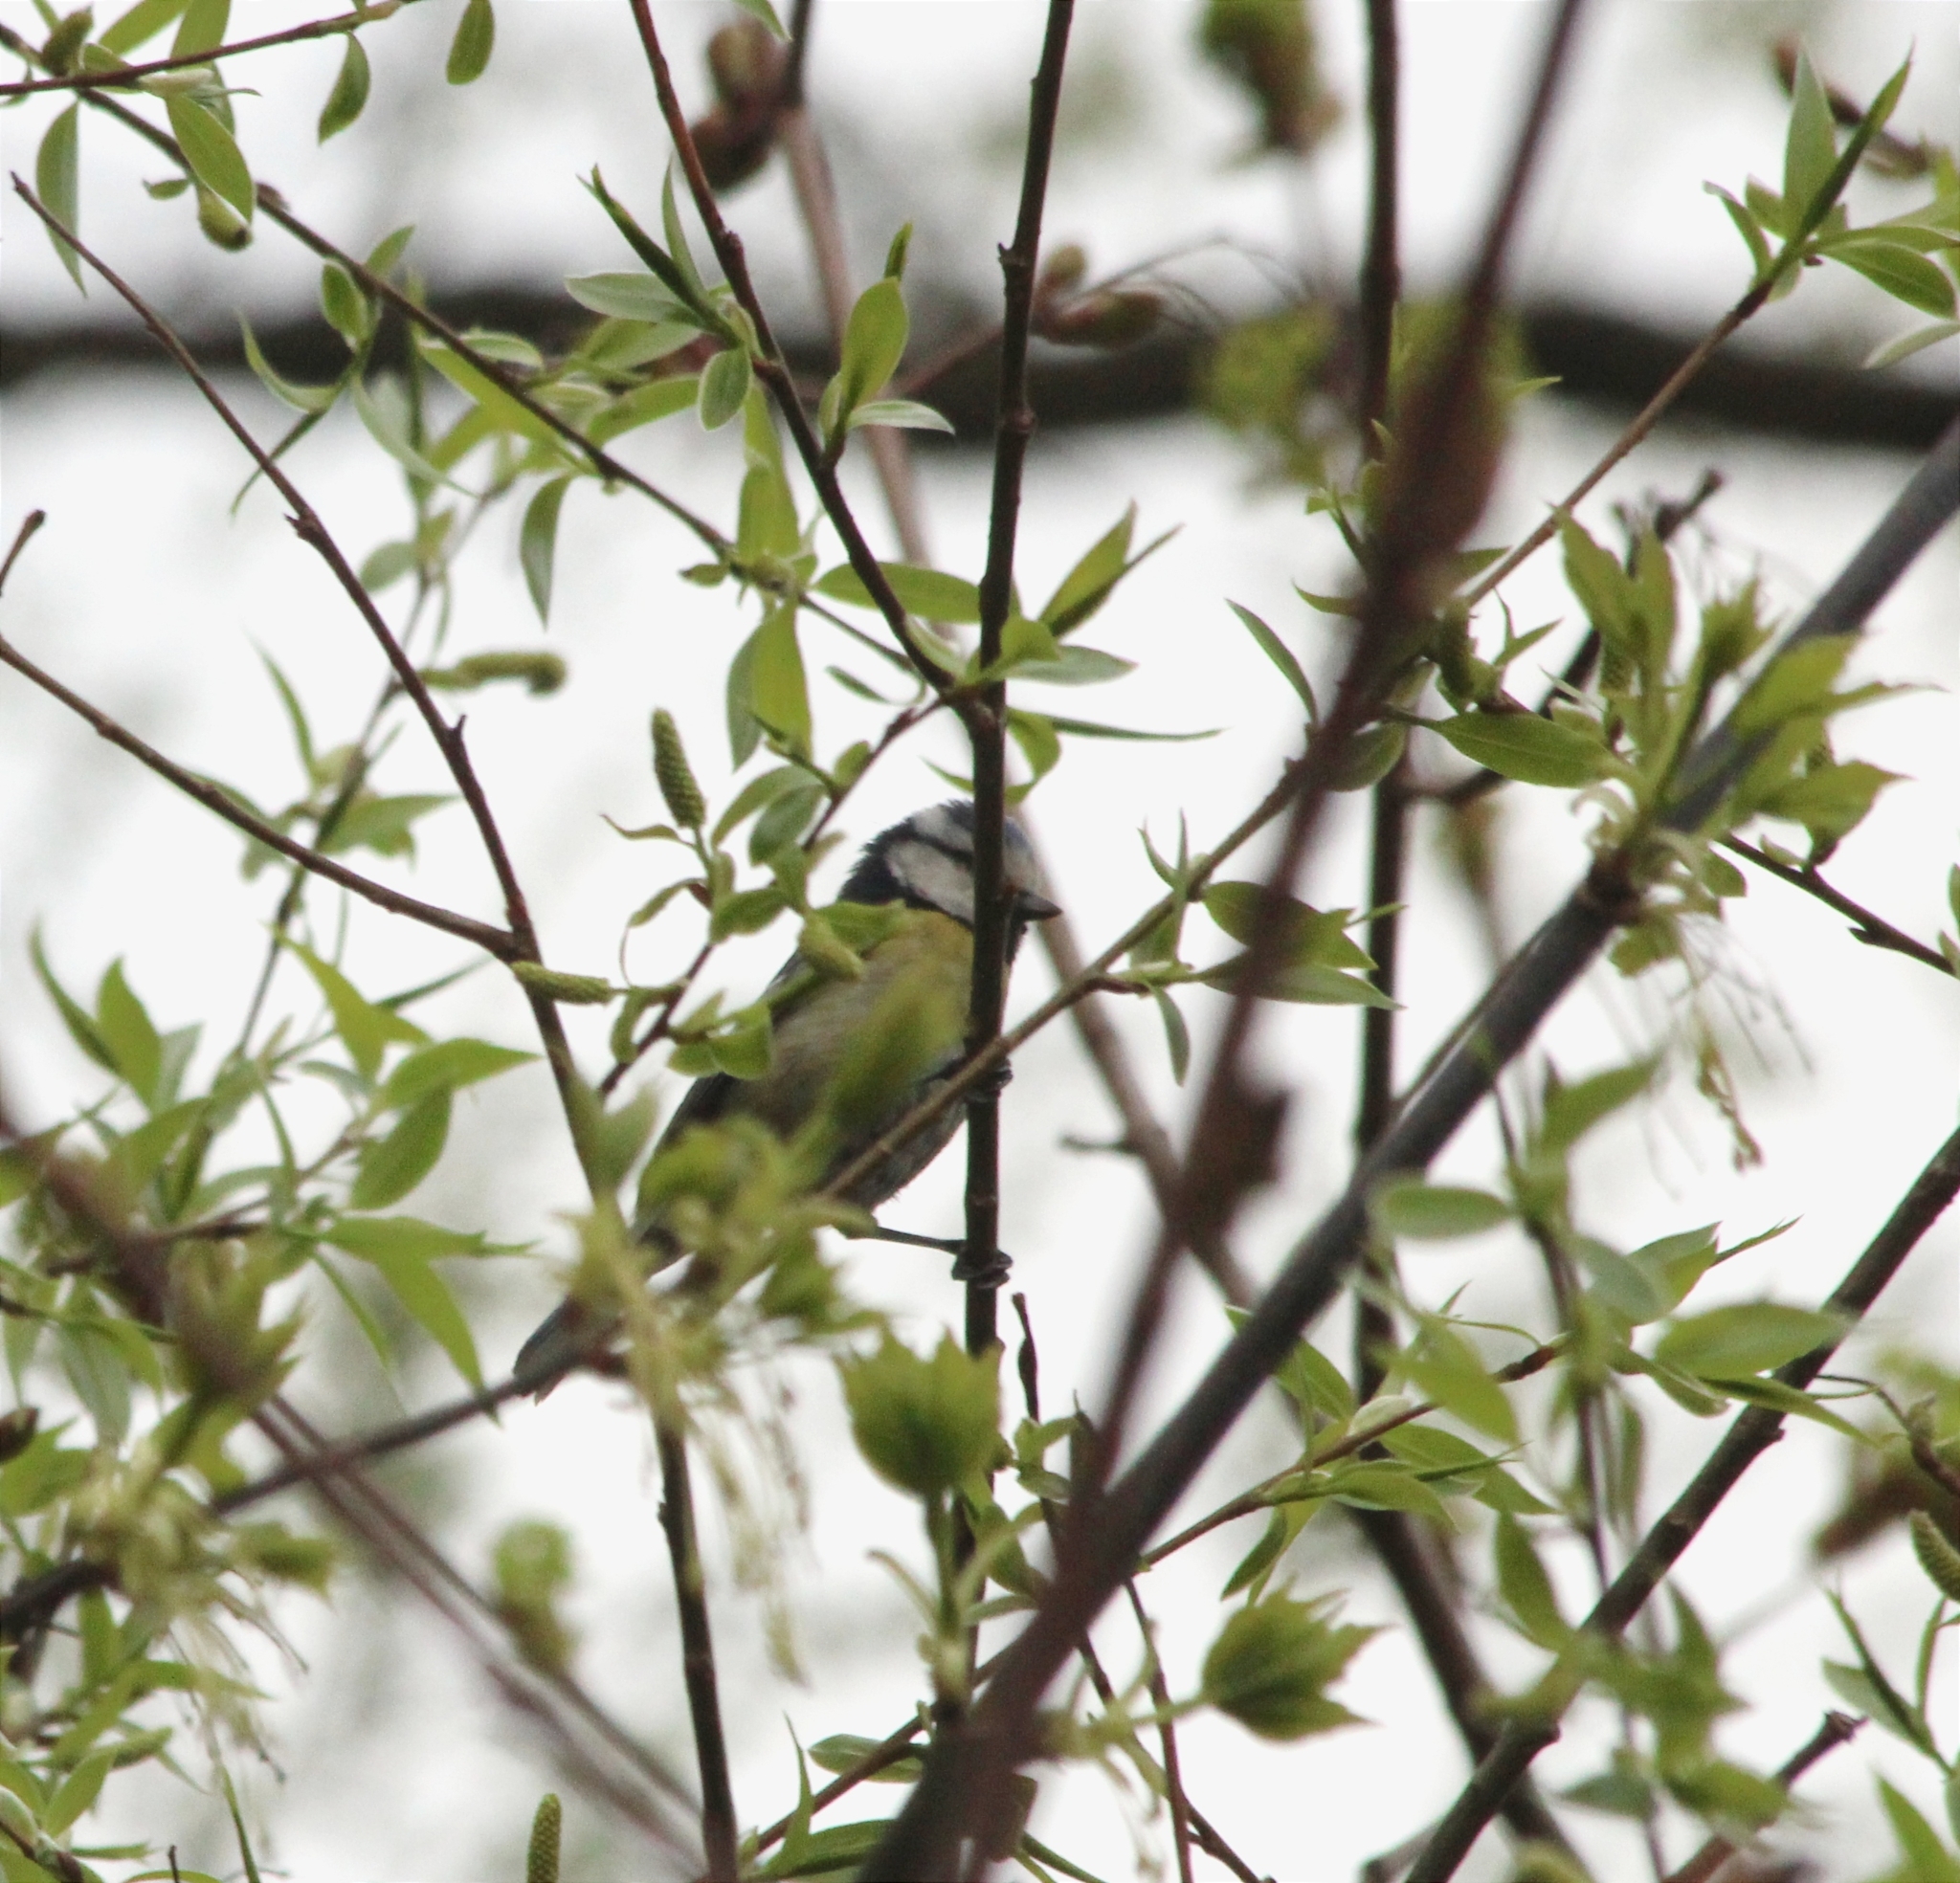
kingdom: Animalia
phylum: Chordata
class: Aves
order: Passeriformes
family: Paridae
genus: Cyanistes
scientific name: Cyanistes caeruleus
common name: Eurasian blue tit
